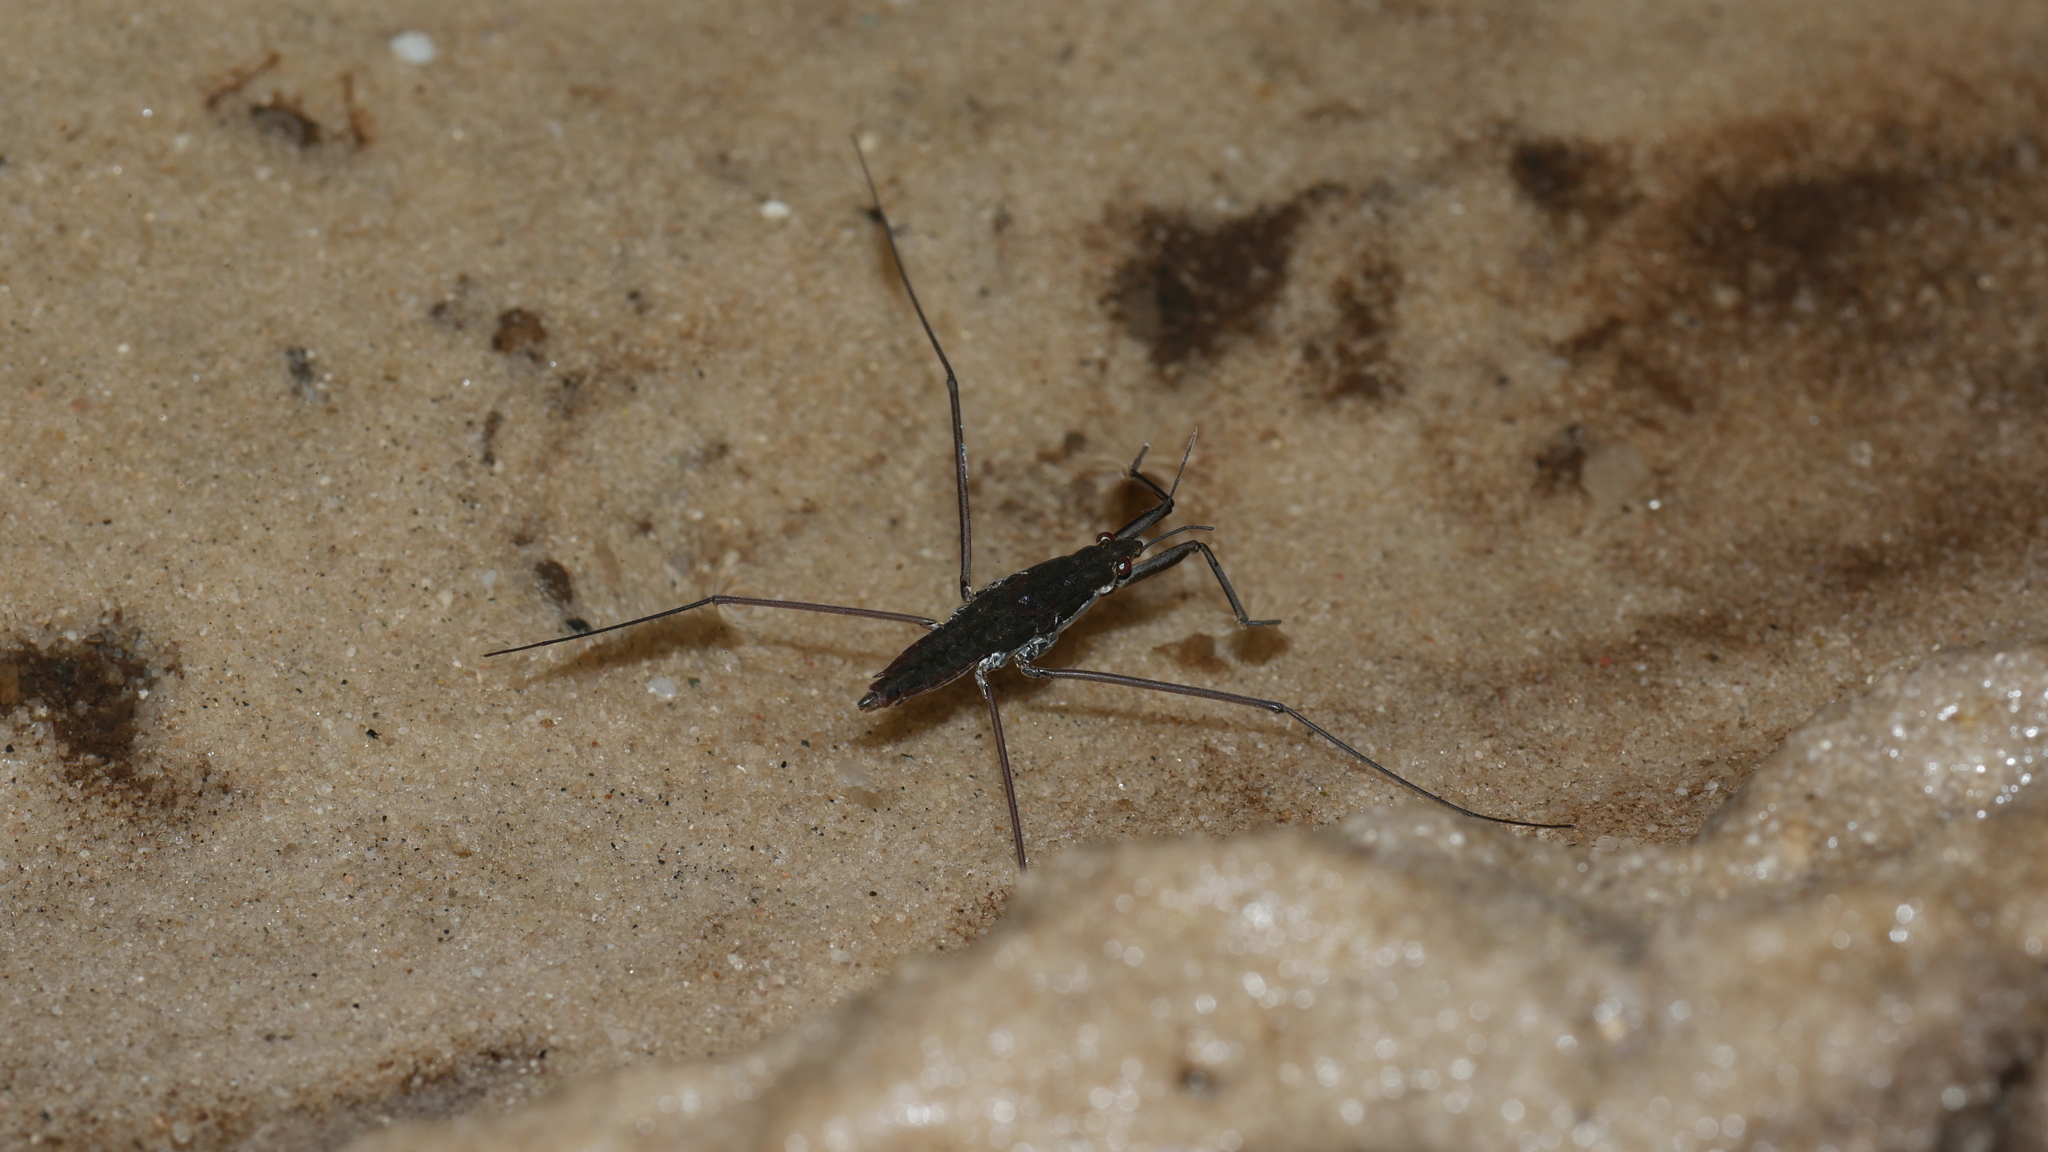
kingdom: Animalia
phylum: Arthropoda
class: Insecta
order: Hemiptera
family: Gerridae
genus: Aquarius
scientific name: Aquarius
